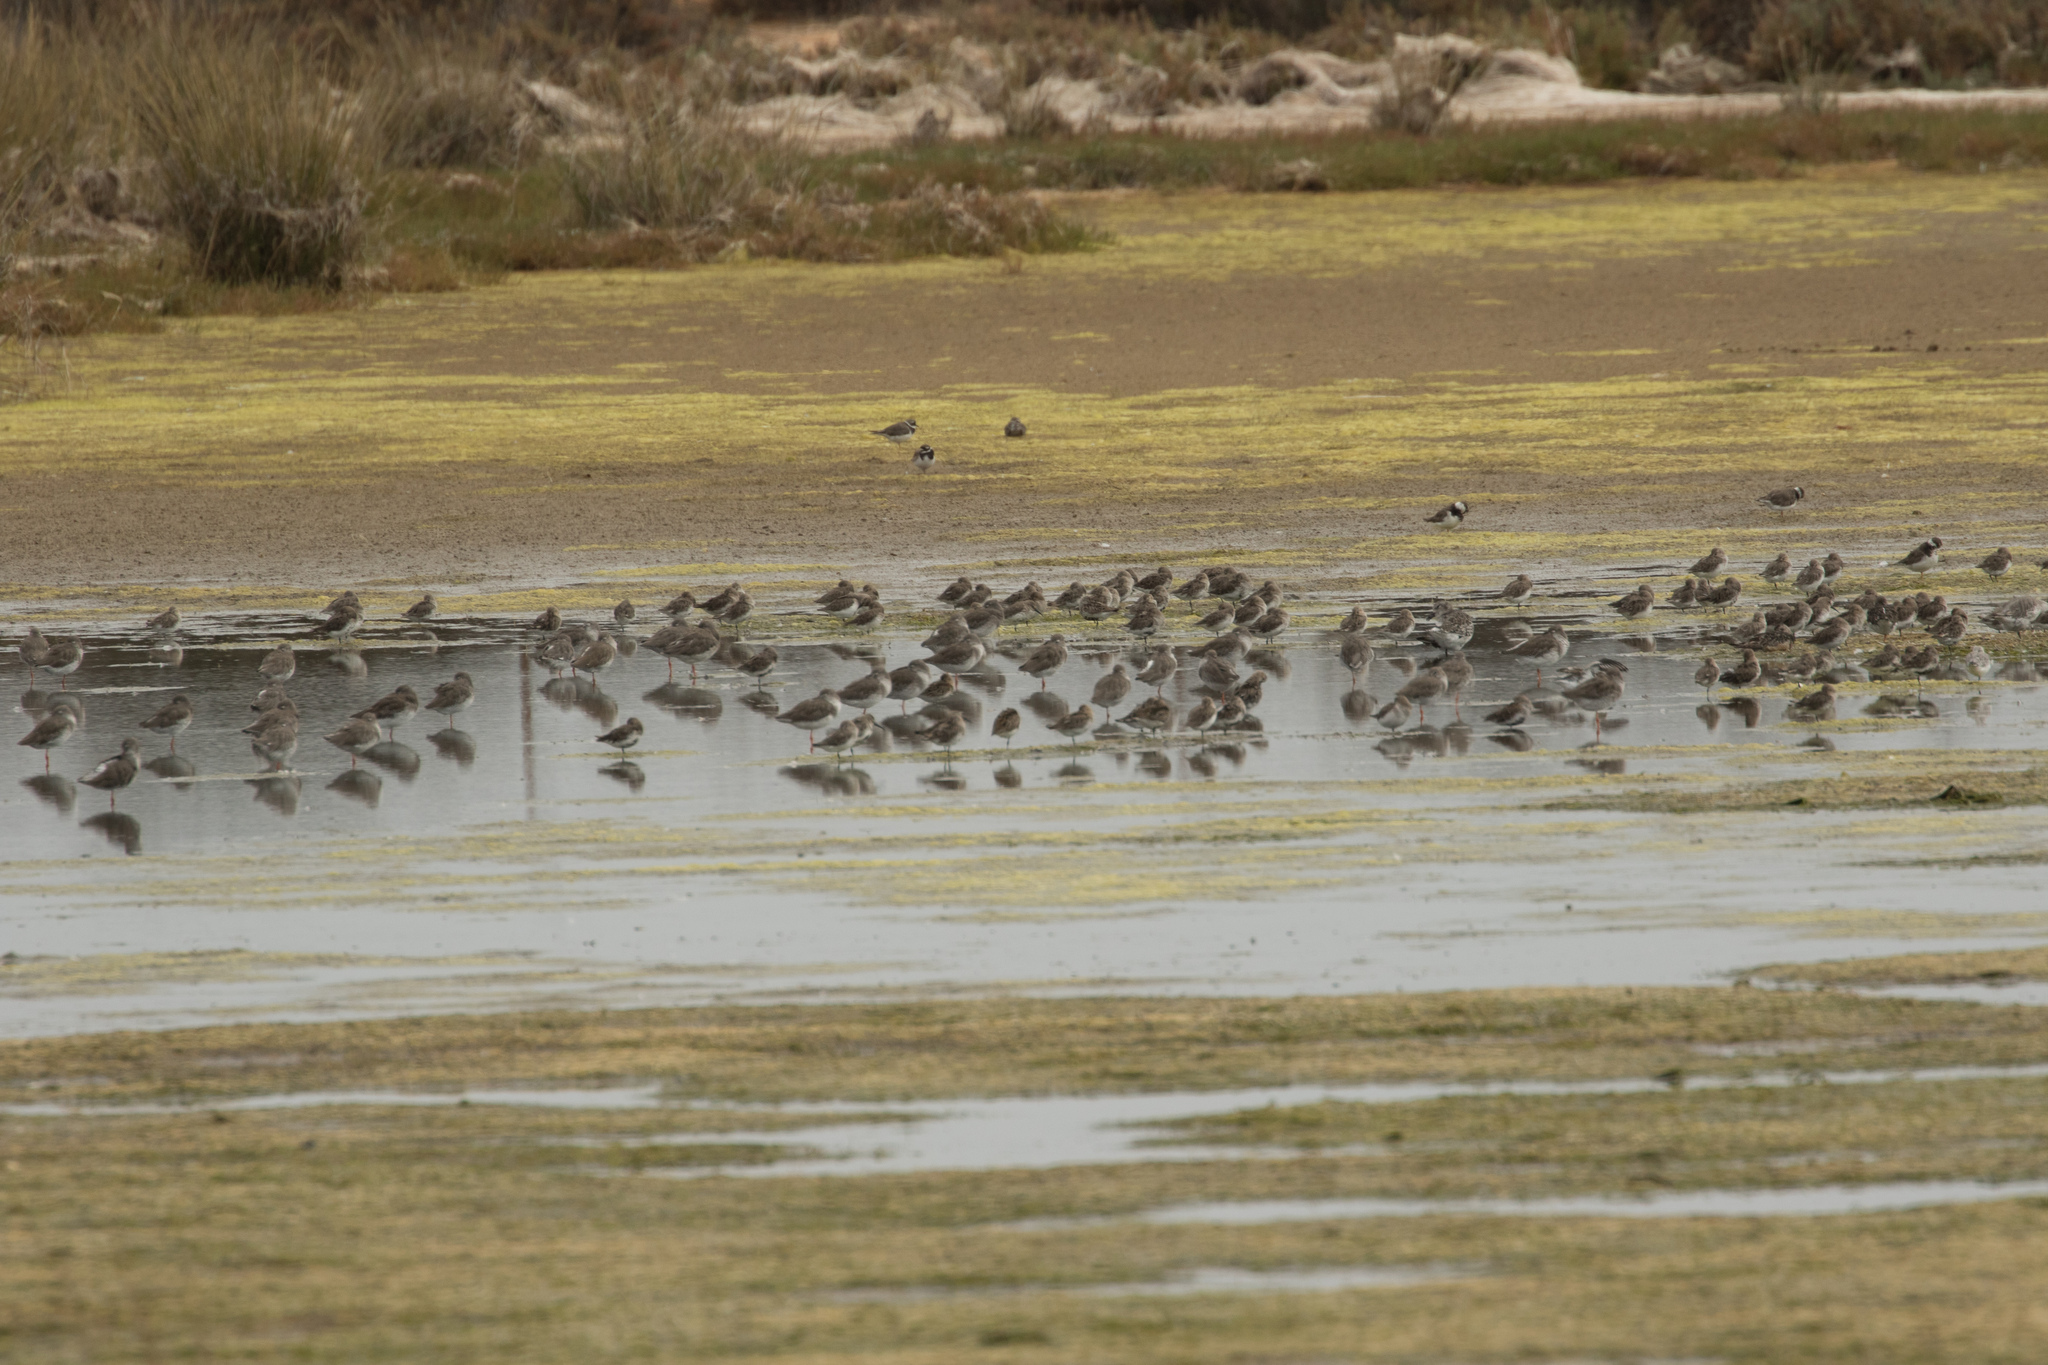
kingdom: Animalia
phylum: Chordata
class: Aves
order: Charadriiformes
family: Scolopacidae
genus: Calidris
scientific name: Calidris alpina
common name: Dunlin
